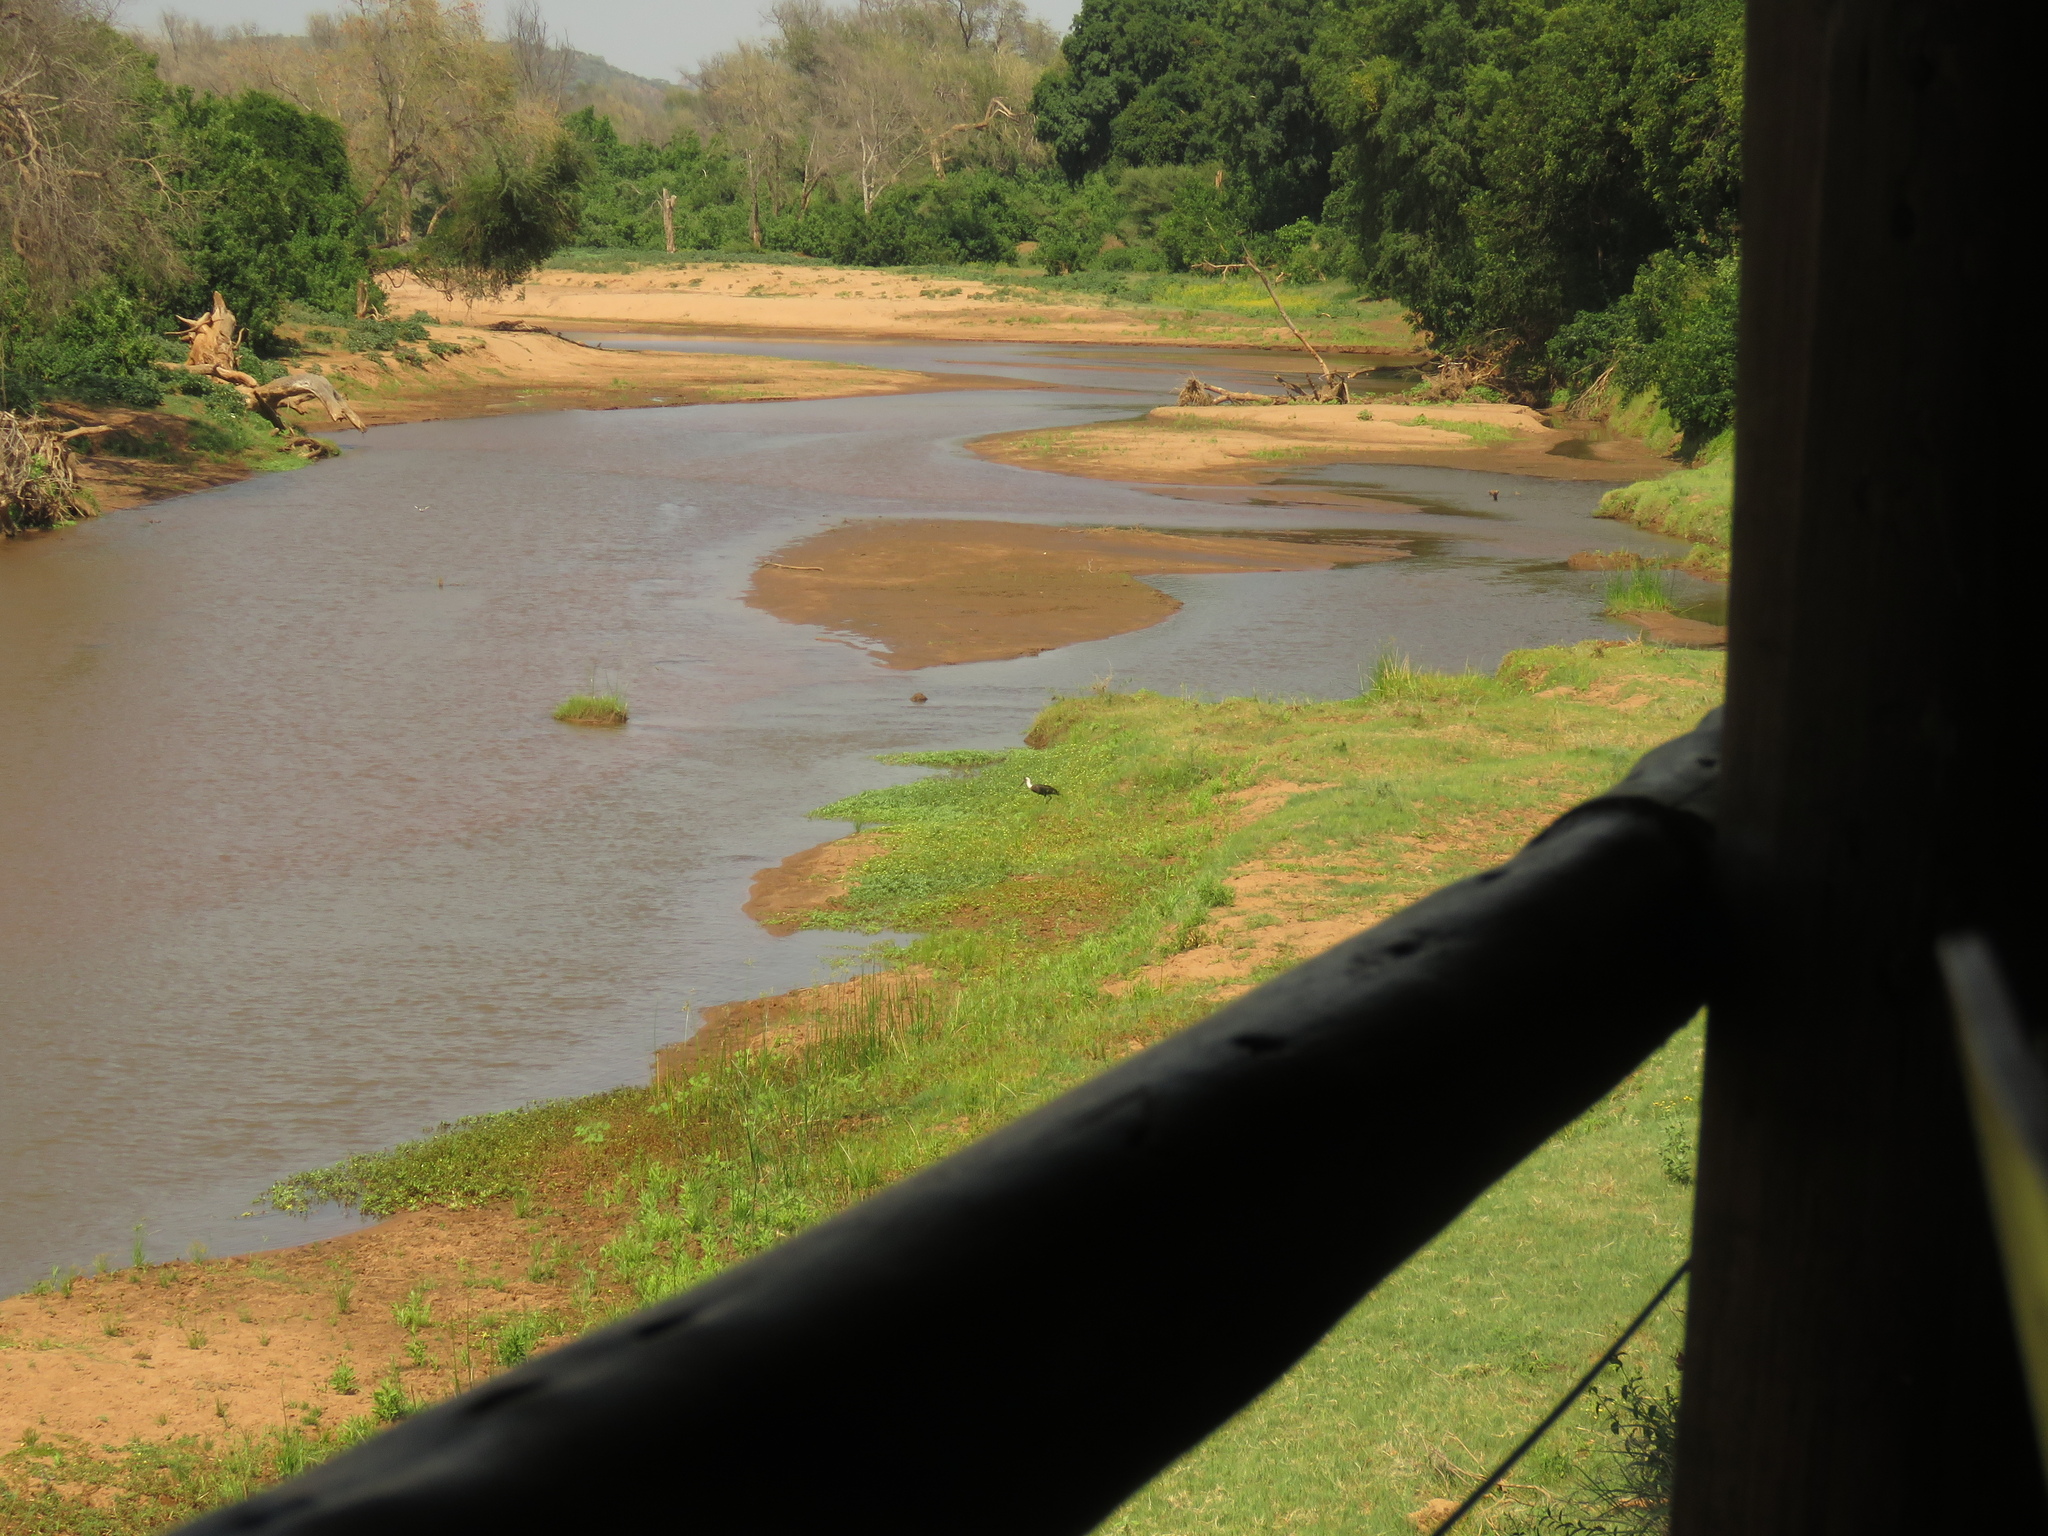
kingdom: Animalia
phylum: Chordata
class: Aves
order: Ciconiiformes
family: Ciconiidae
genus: Ciconia
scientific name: Ciconia microscelis
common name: African woollyneck
